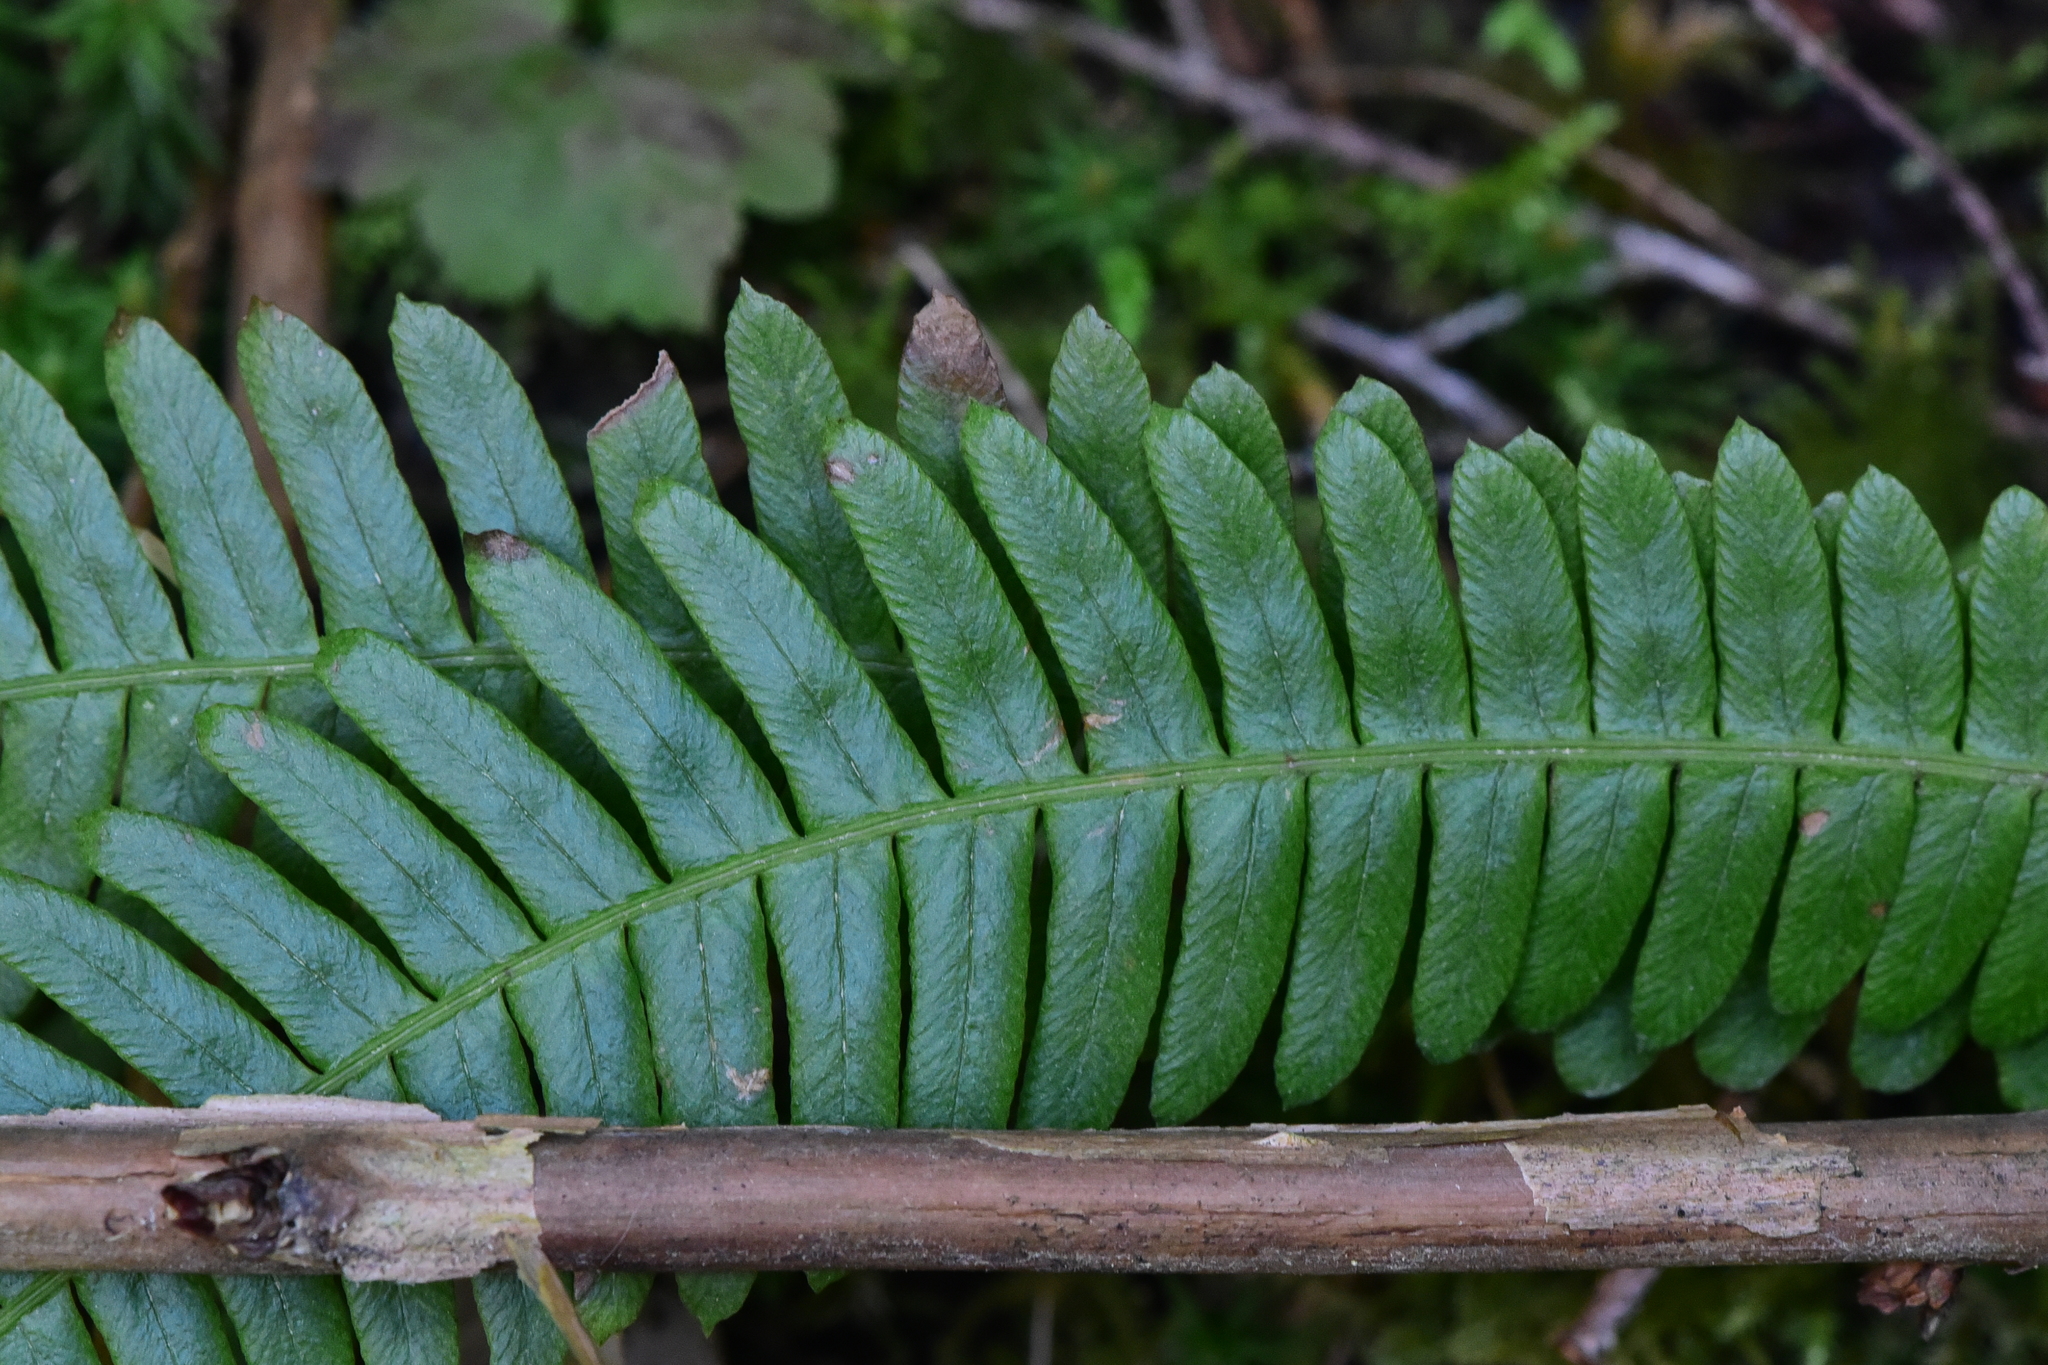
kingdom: Plantae
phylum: Tracheophyta
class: Polypodiopsida
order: Polypodiales
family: Blechnaceae
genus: Struthiopteris
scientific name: Struthiopteris spicant
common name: Deer fern
